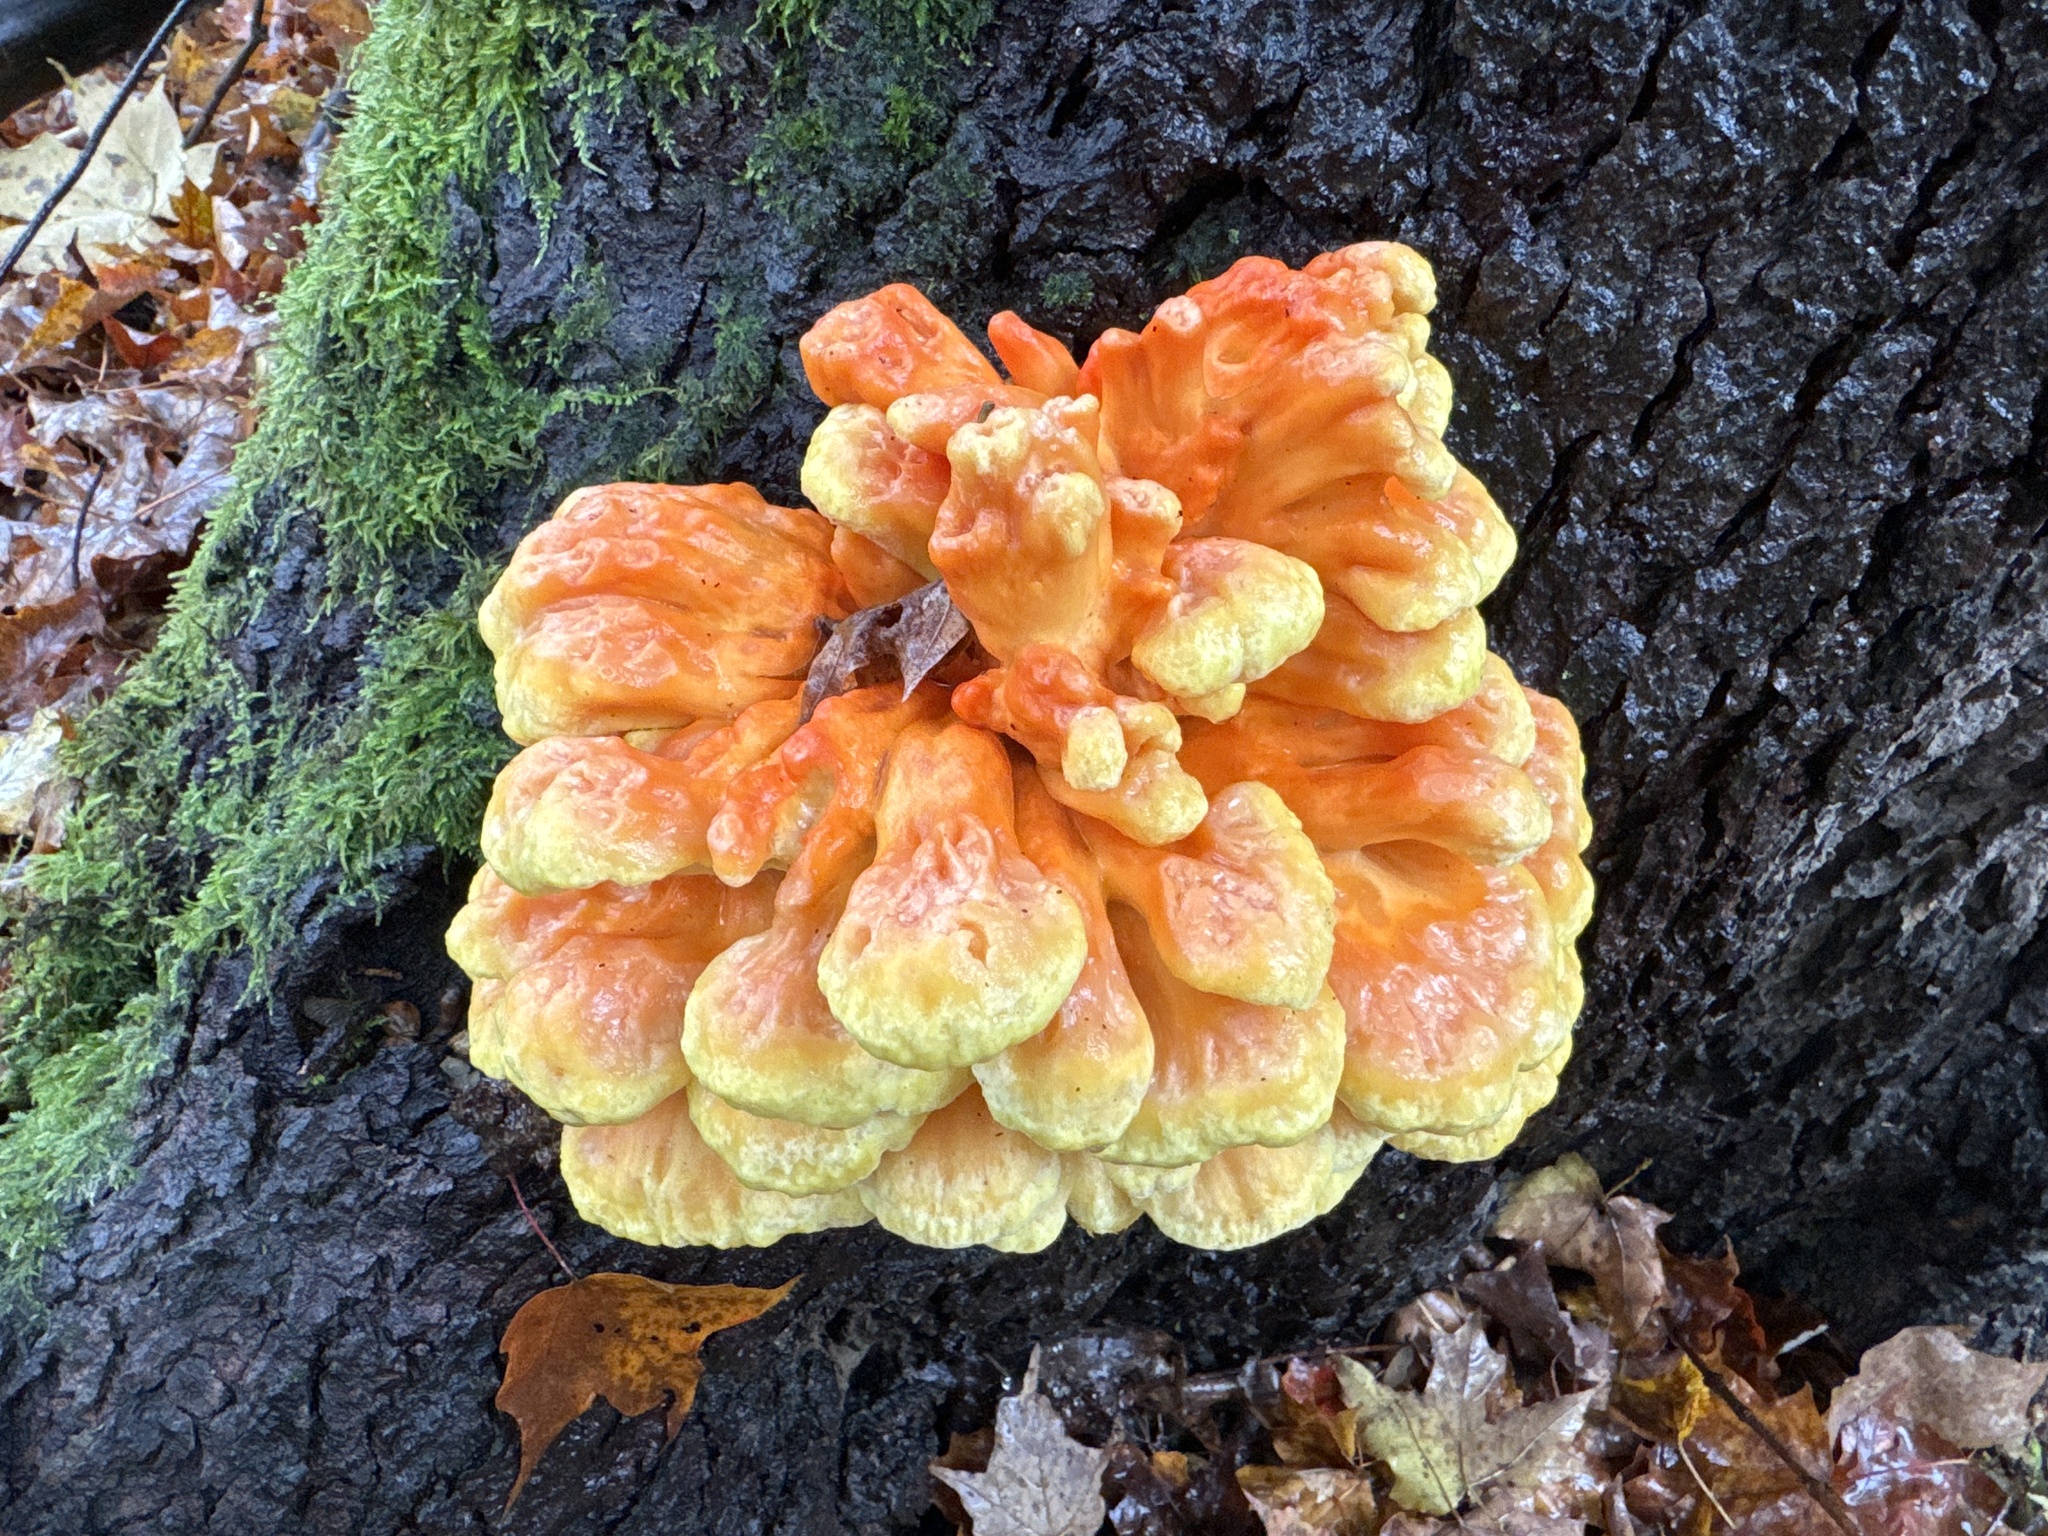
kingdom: Fungi
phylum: Basidiomycota
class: Agaricomycetes
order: Polyporales
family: Laetiporaceae
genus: Laetiporus
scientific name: Laetiporus sulphureus
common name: Chicken of the woods
